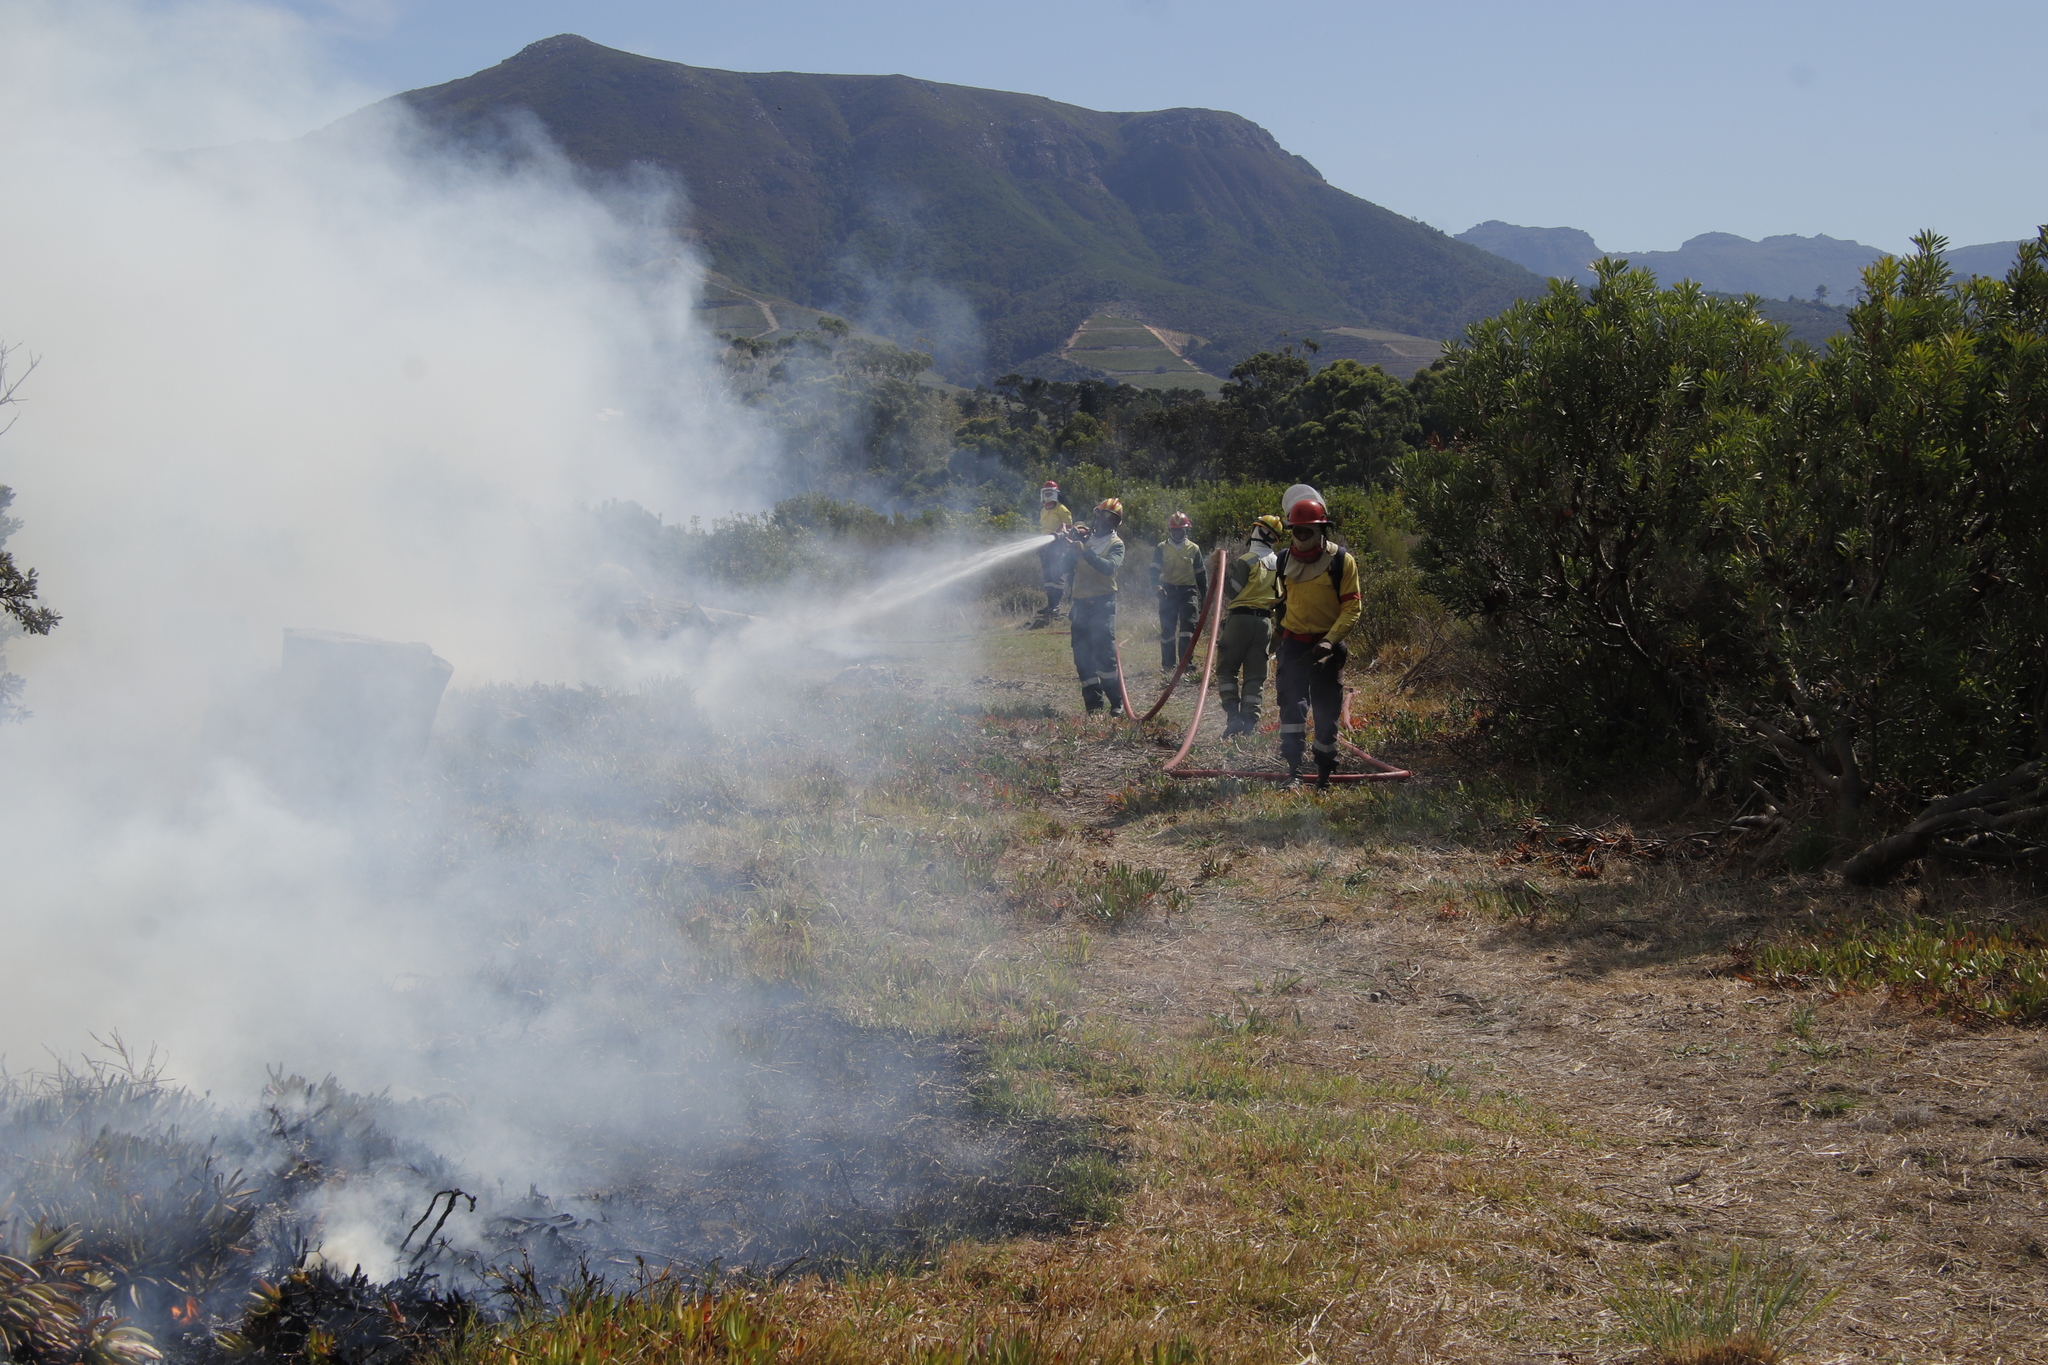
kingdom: Plantae
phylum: Tracheophyta
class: Magnoliopsida
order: Proteales
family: Proteaceae
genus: Protea
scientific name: Protea repens
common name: Sugarbush
